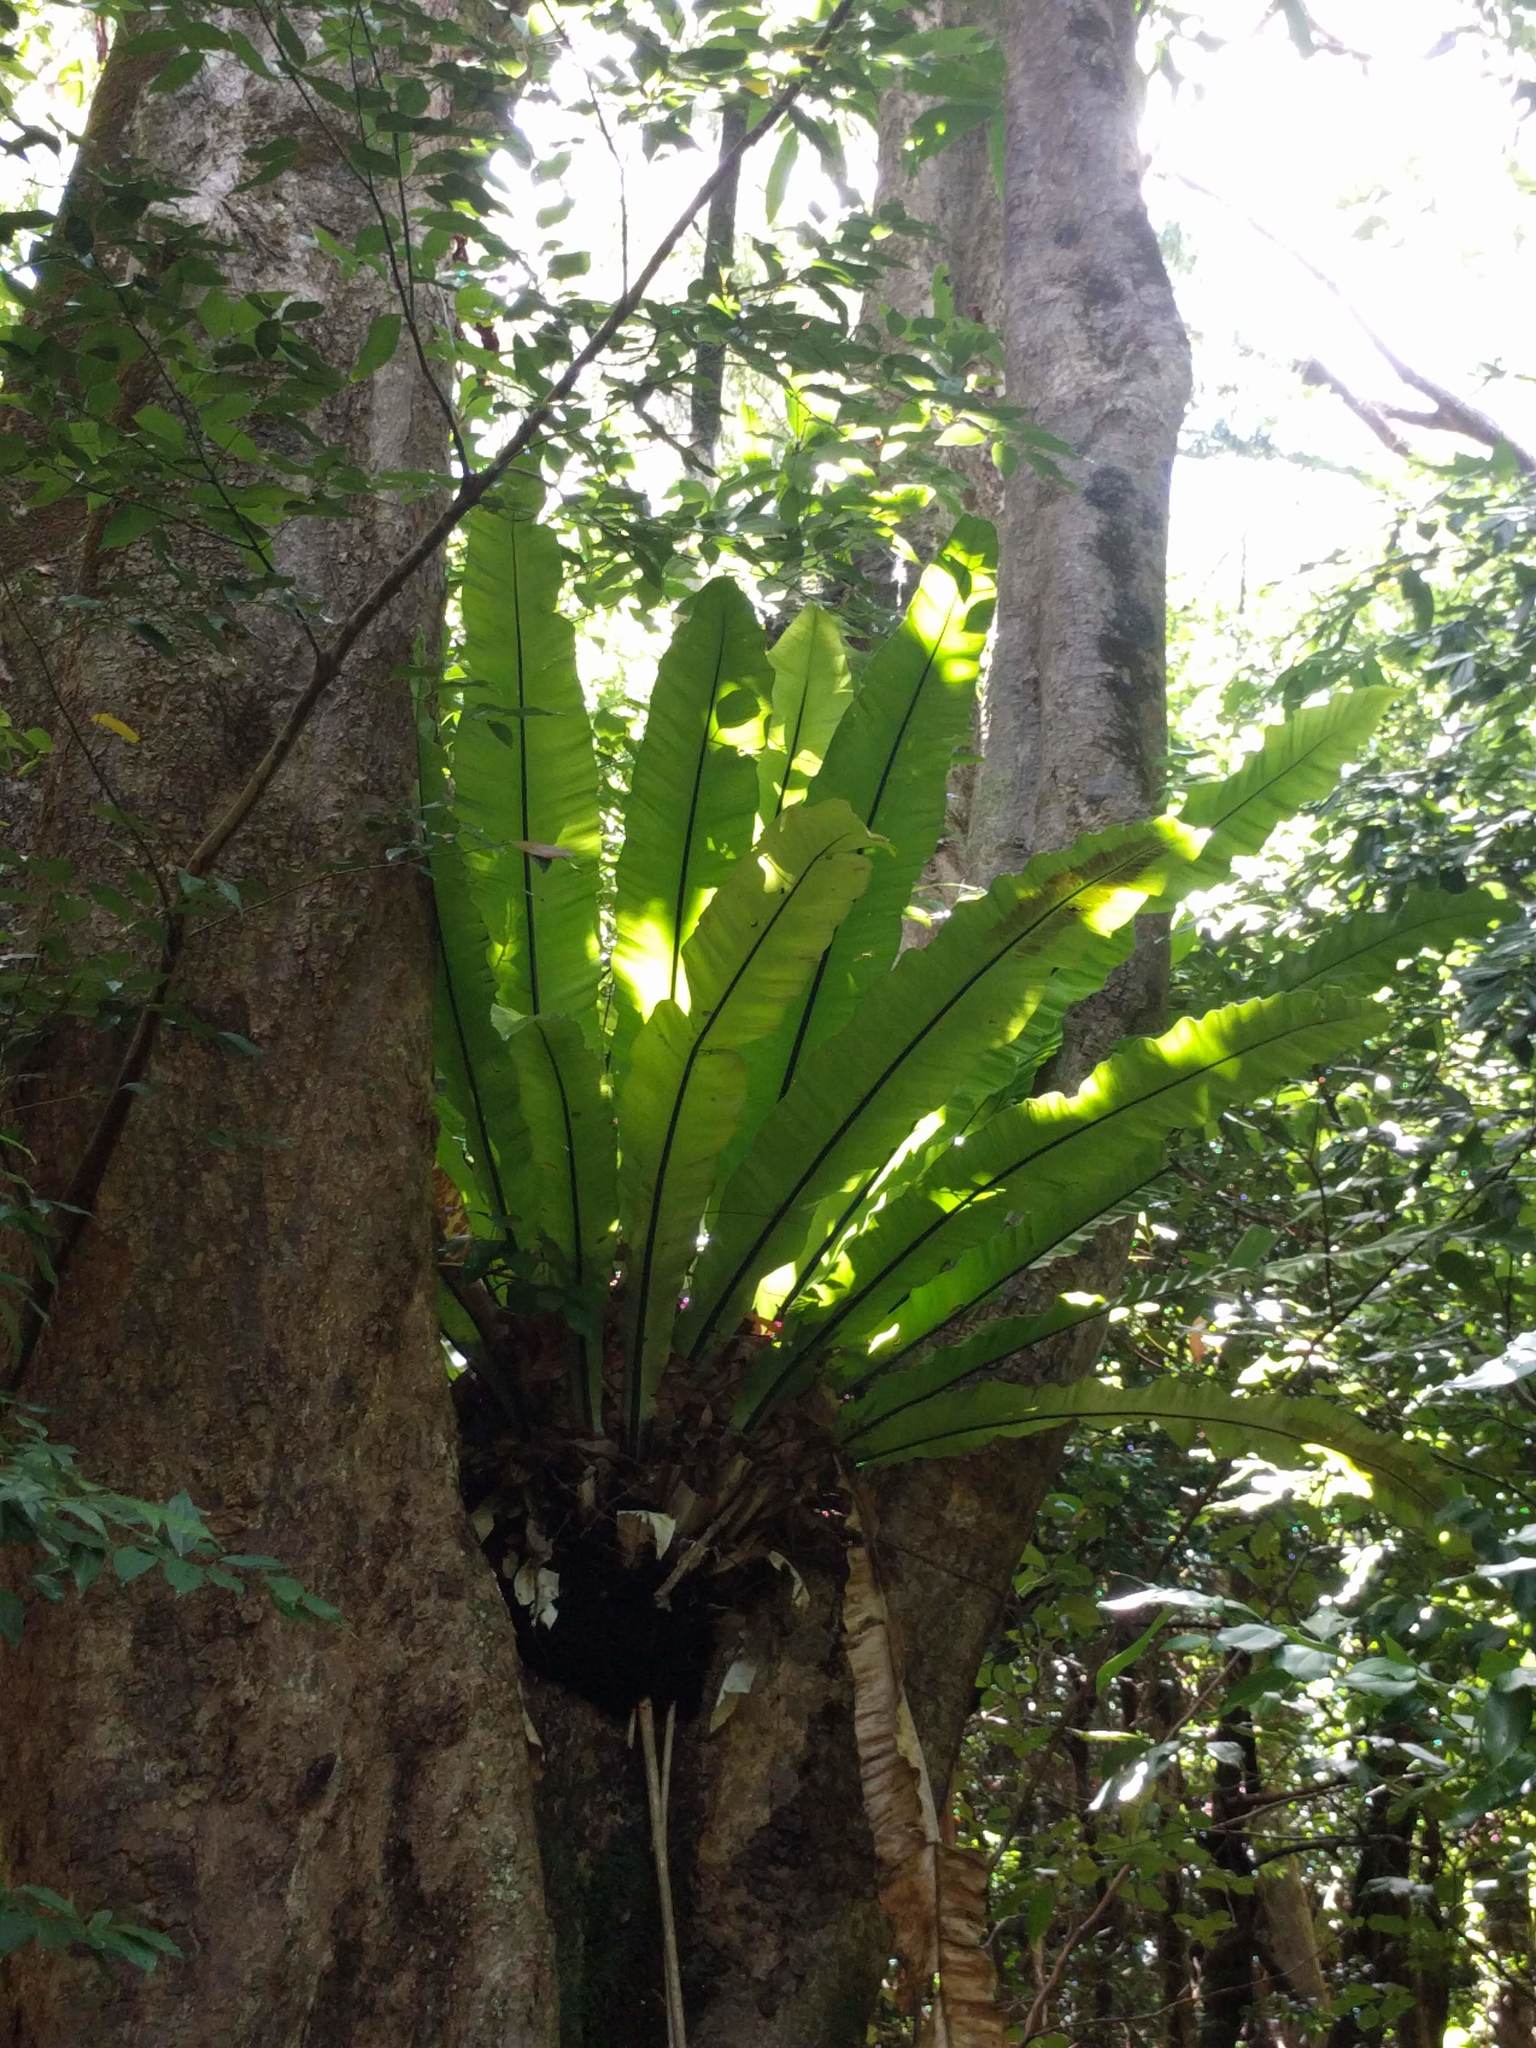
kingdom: Plantae
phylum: Tracheophyta
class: Polypodiopsida
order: Polypodiales
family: Aspleniaceae
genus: Asplenium
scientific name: Asplenium nidus
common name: Bird's-nest fern
